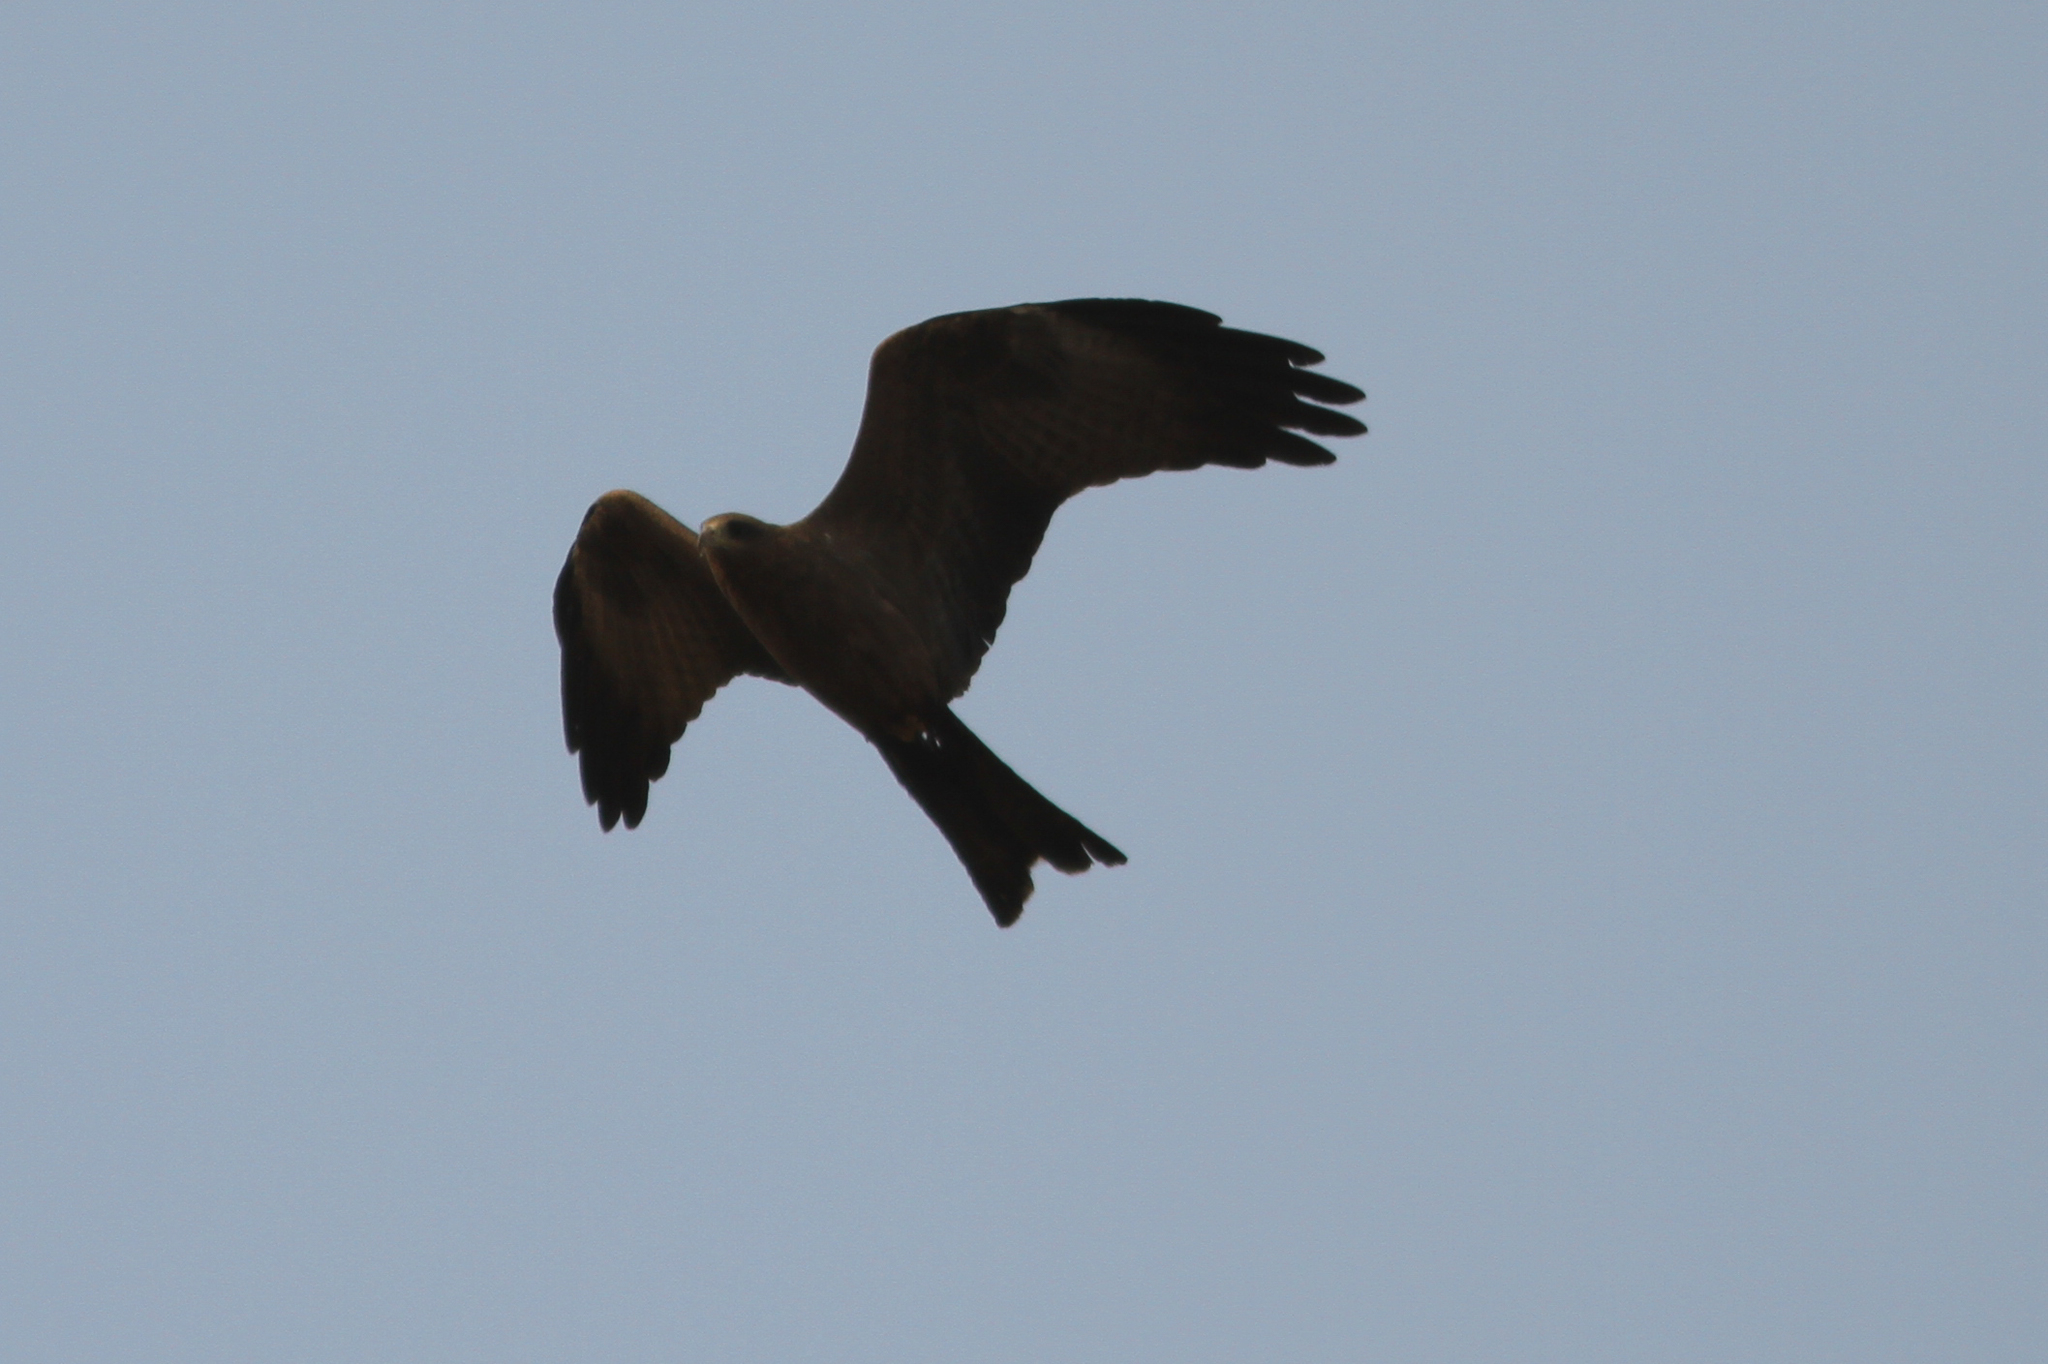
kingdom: Animalia
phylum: Chordata
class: Aves
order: Accipitriformes
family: Accipitridae
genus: Milvus
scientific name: Milvus migrans
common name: Black kite
